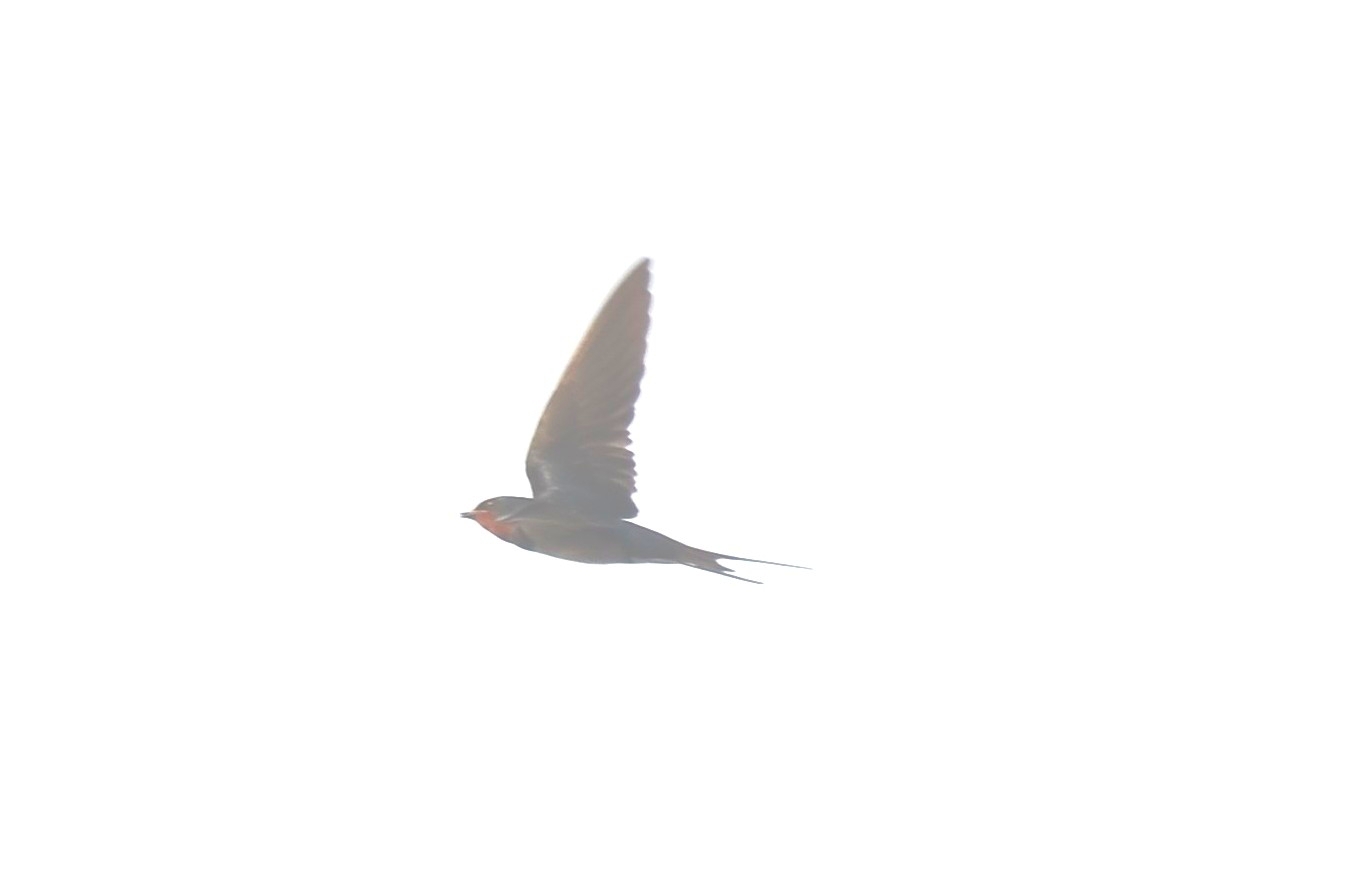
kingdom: Animalia
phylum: Chordata
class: Aves
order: Passeriformes
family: Hirundinidae
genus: Hirundo
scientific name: Hirundo rustica
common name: Barn swallow
